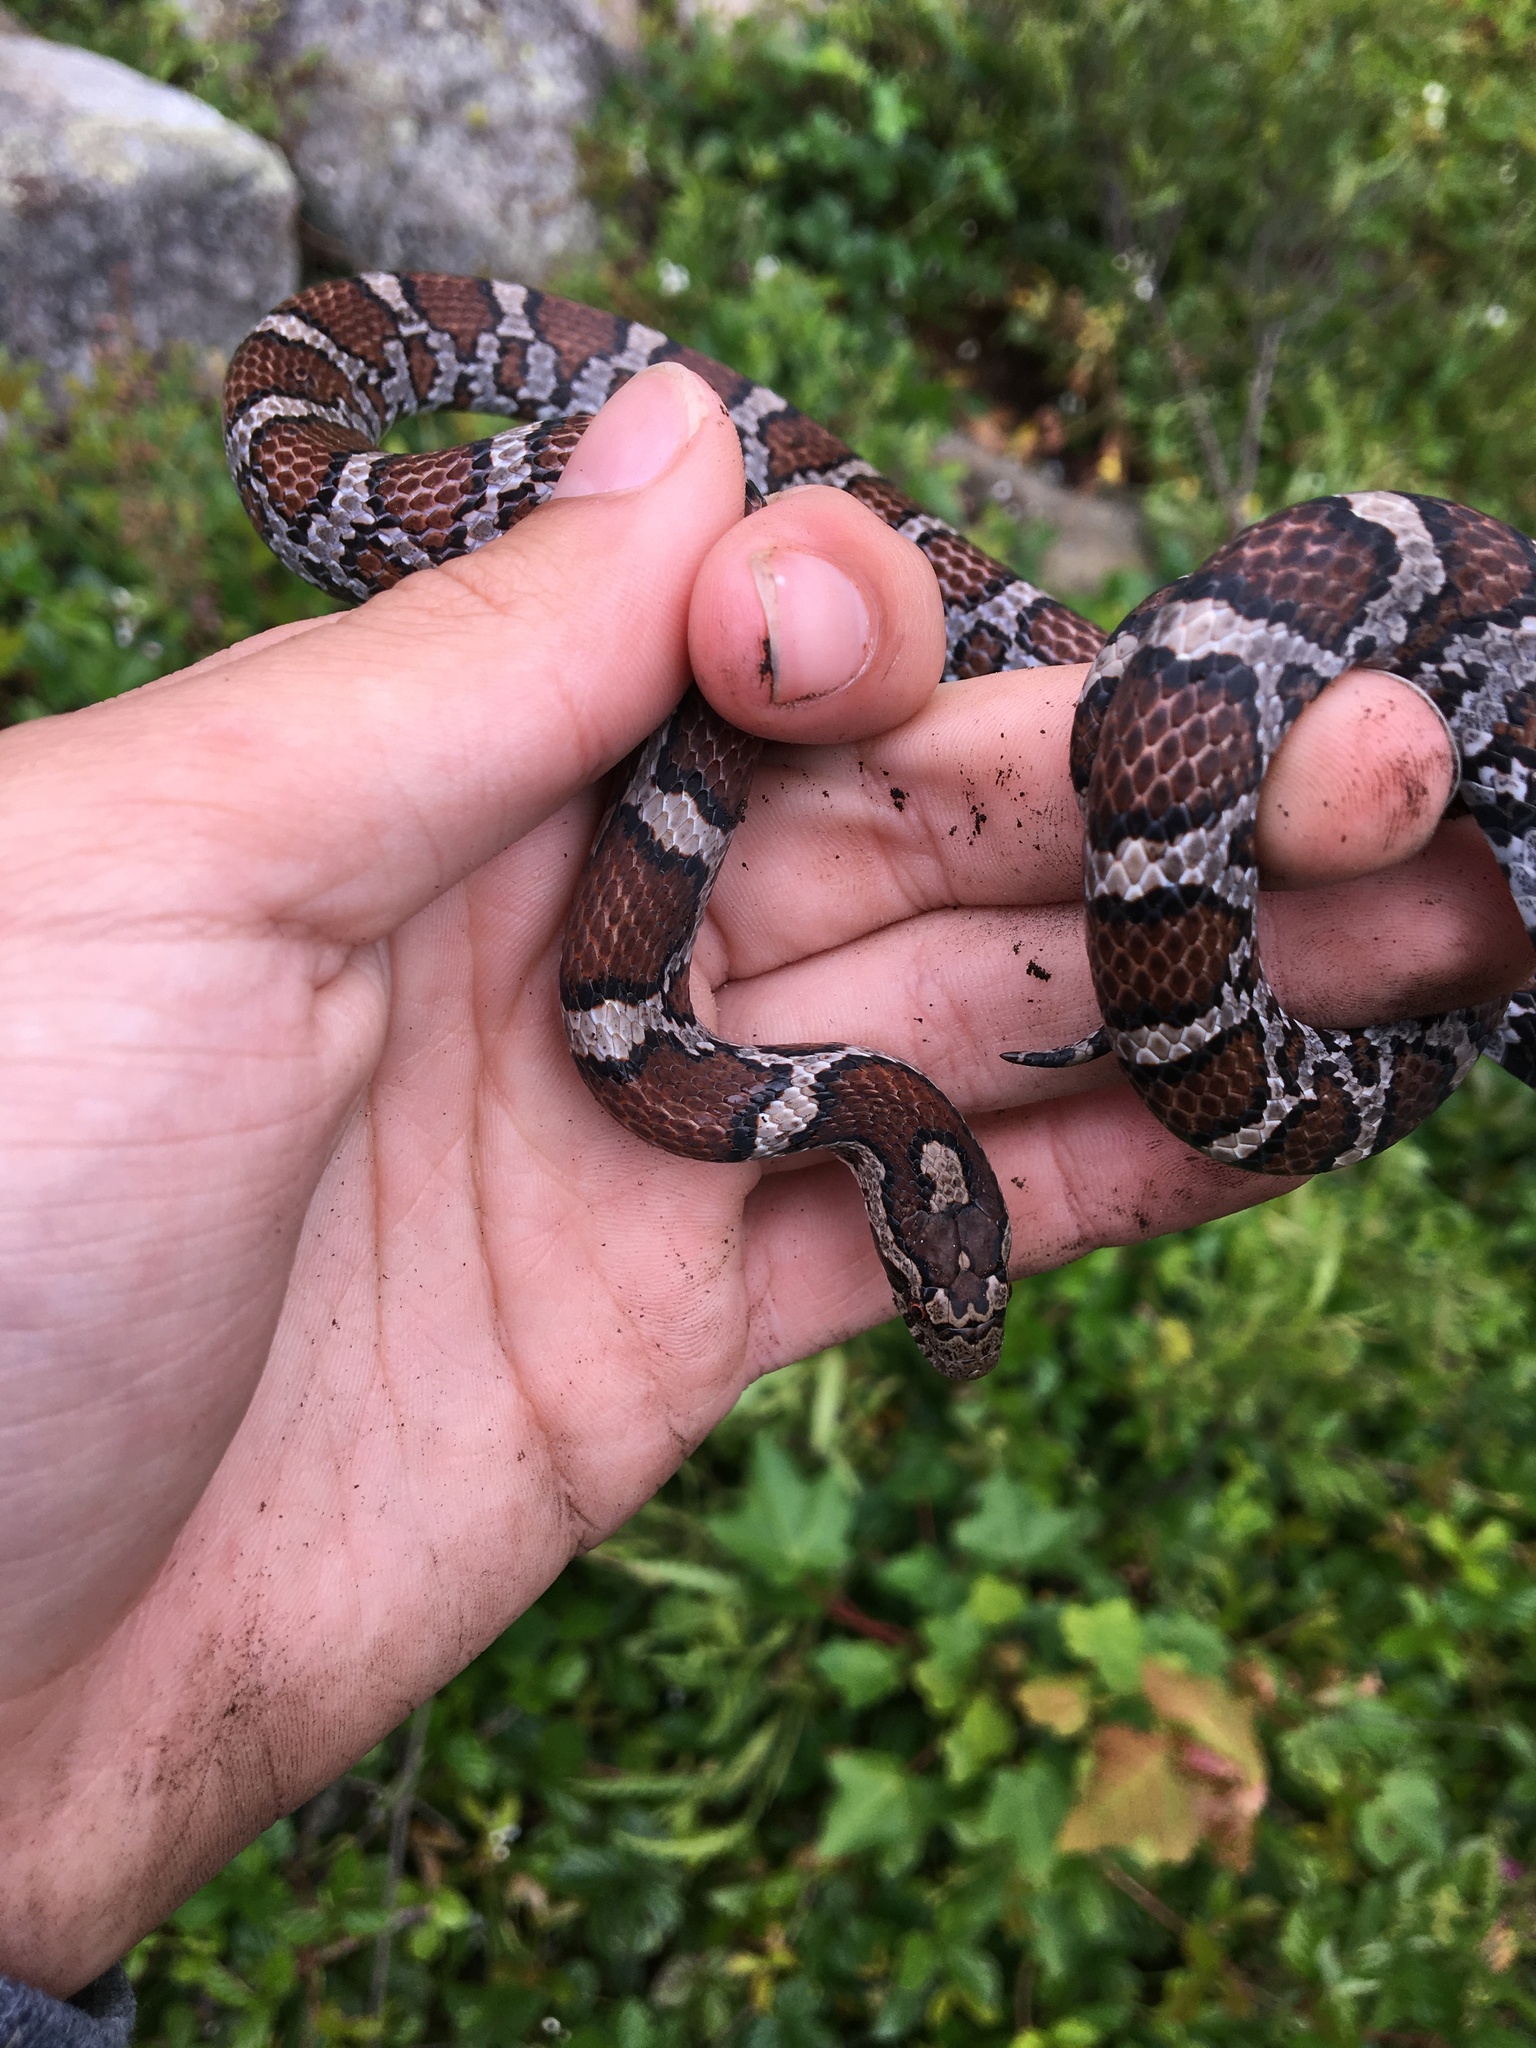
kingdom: Animalia
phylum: Chordata
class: Squamata
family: Colubridae
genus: Lampropeltis
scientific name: Lampropeltis triangulum
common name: Eastern milksnake
